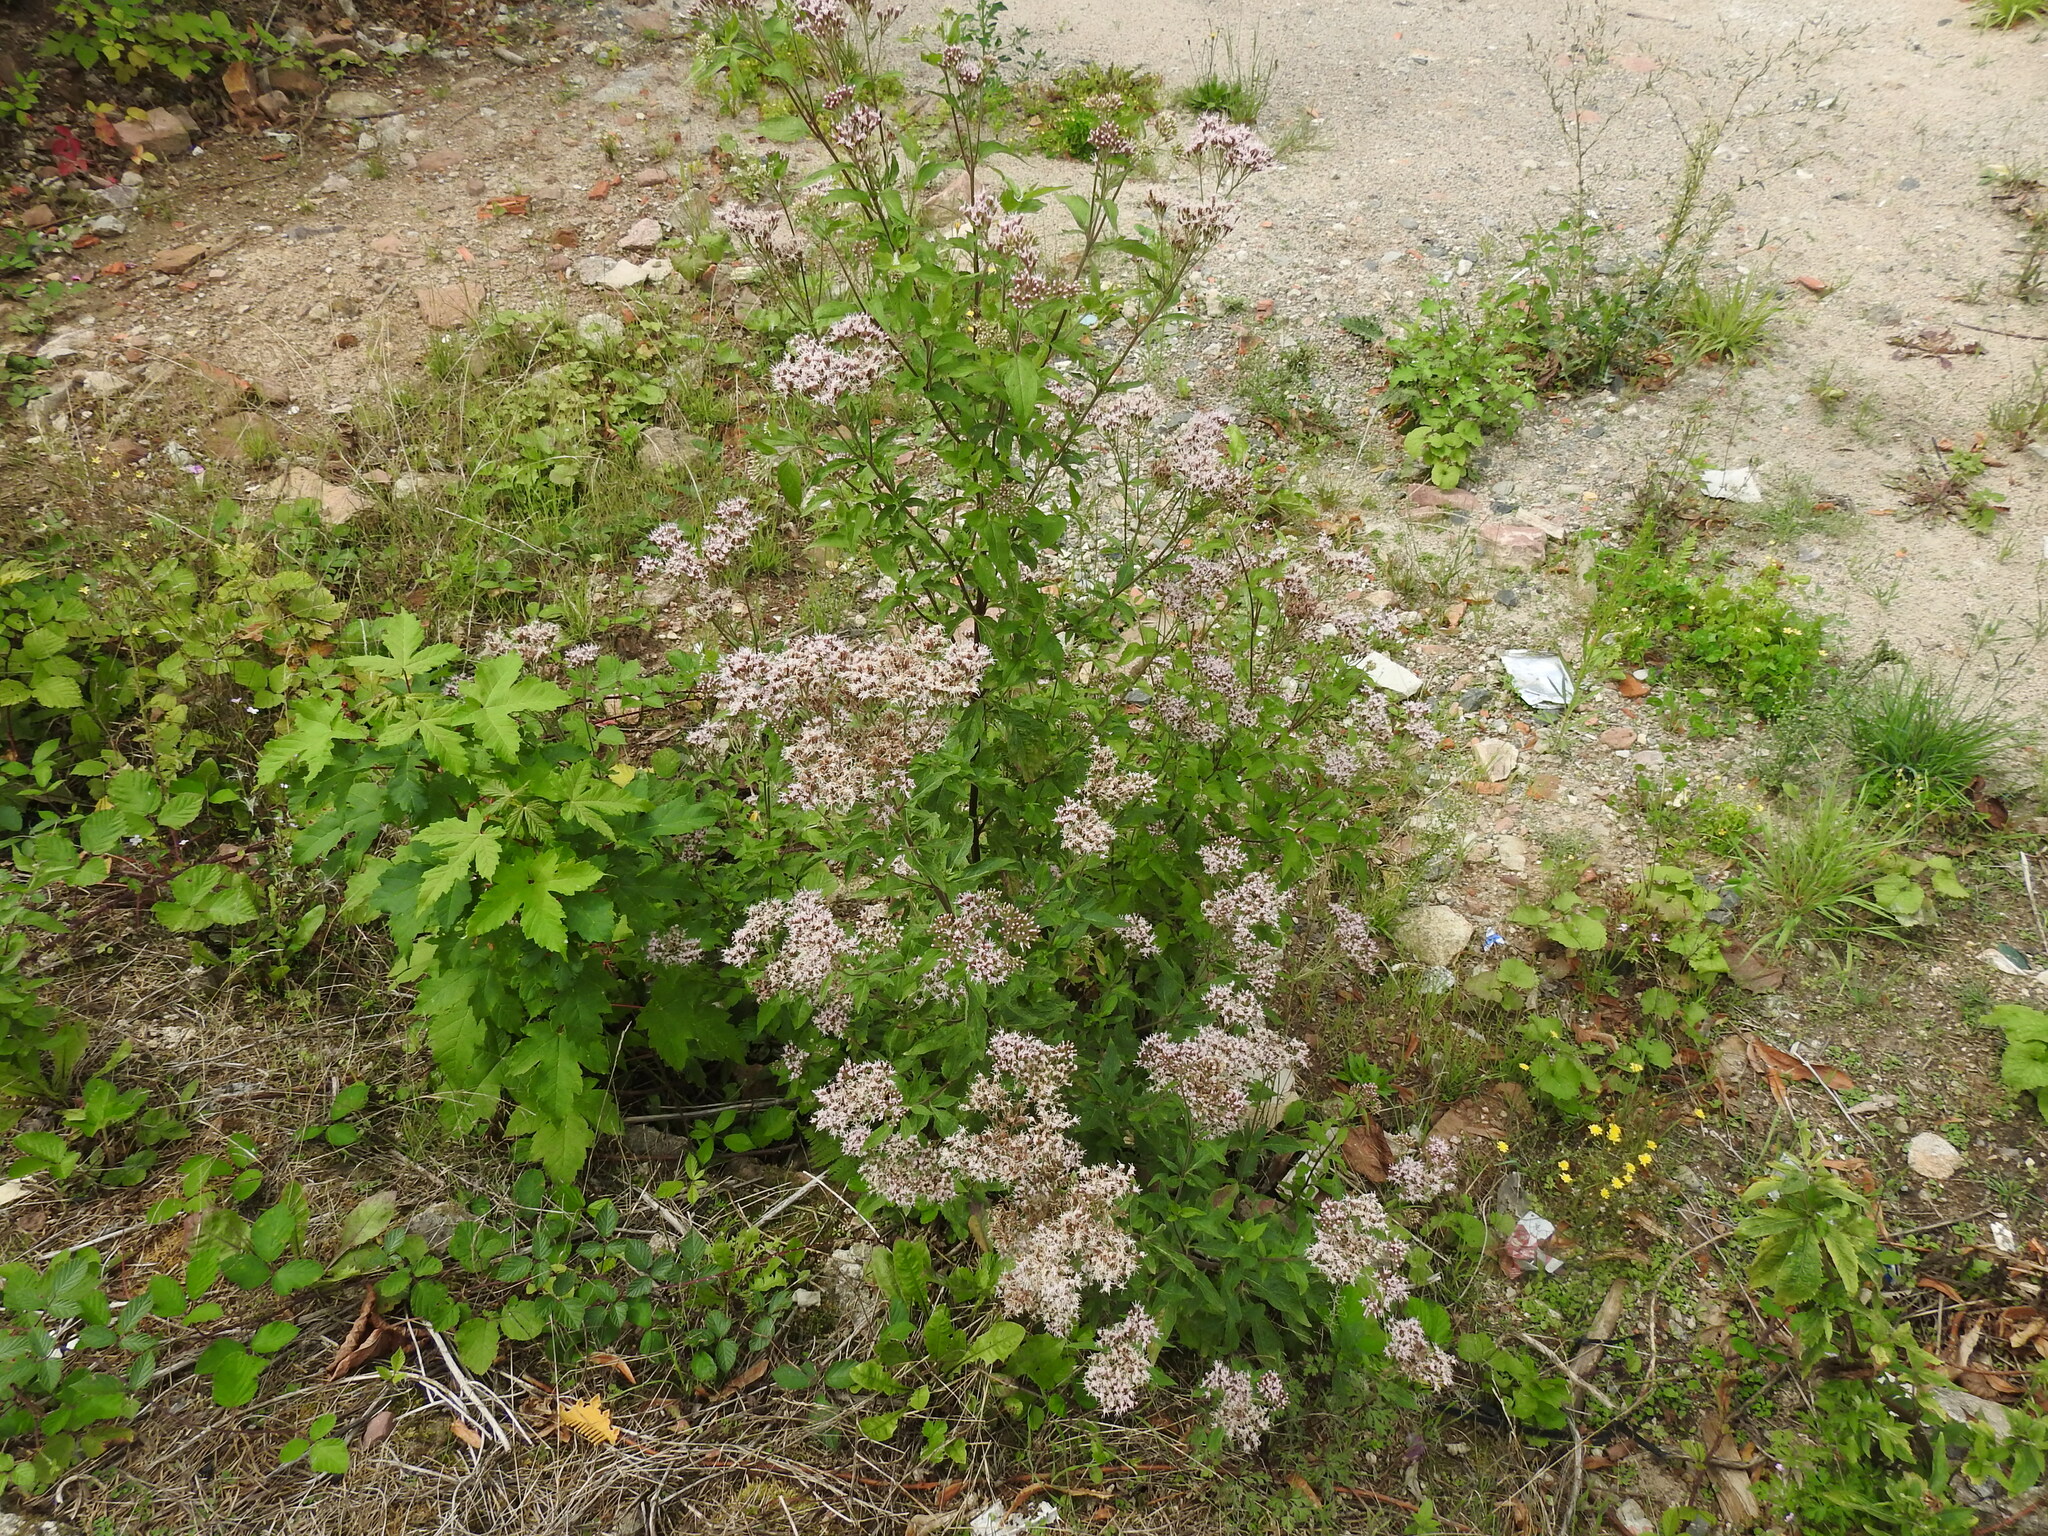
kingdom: Plantae
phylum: Tracheophyta
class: Magnoliopsida
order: Asterales
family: Asteraceae
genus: Eupatorium
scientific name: Eupatorium cannabinum
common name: Hemp-agrimony
